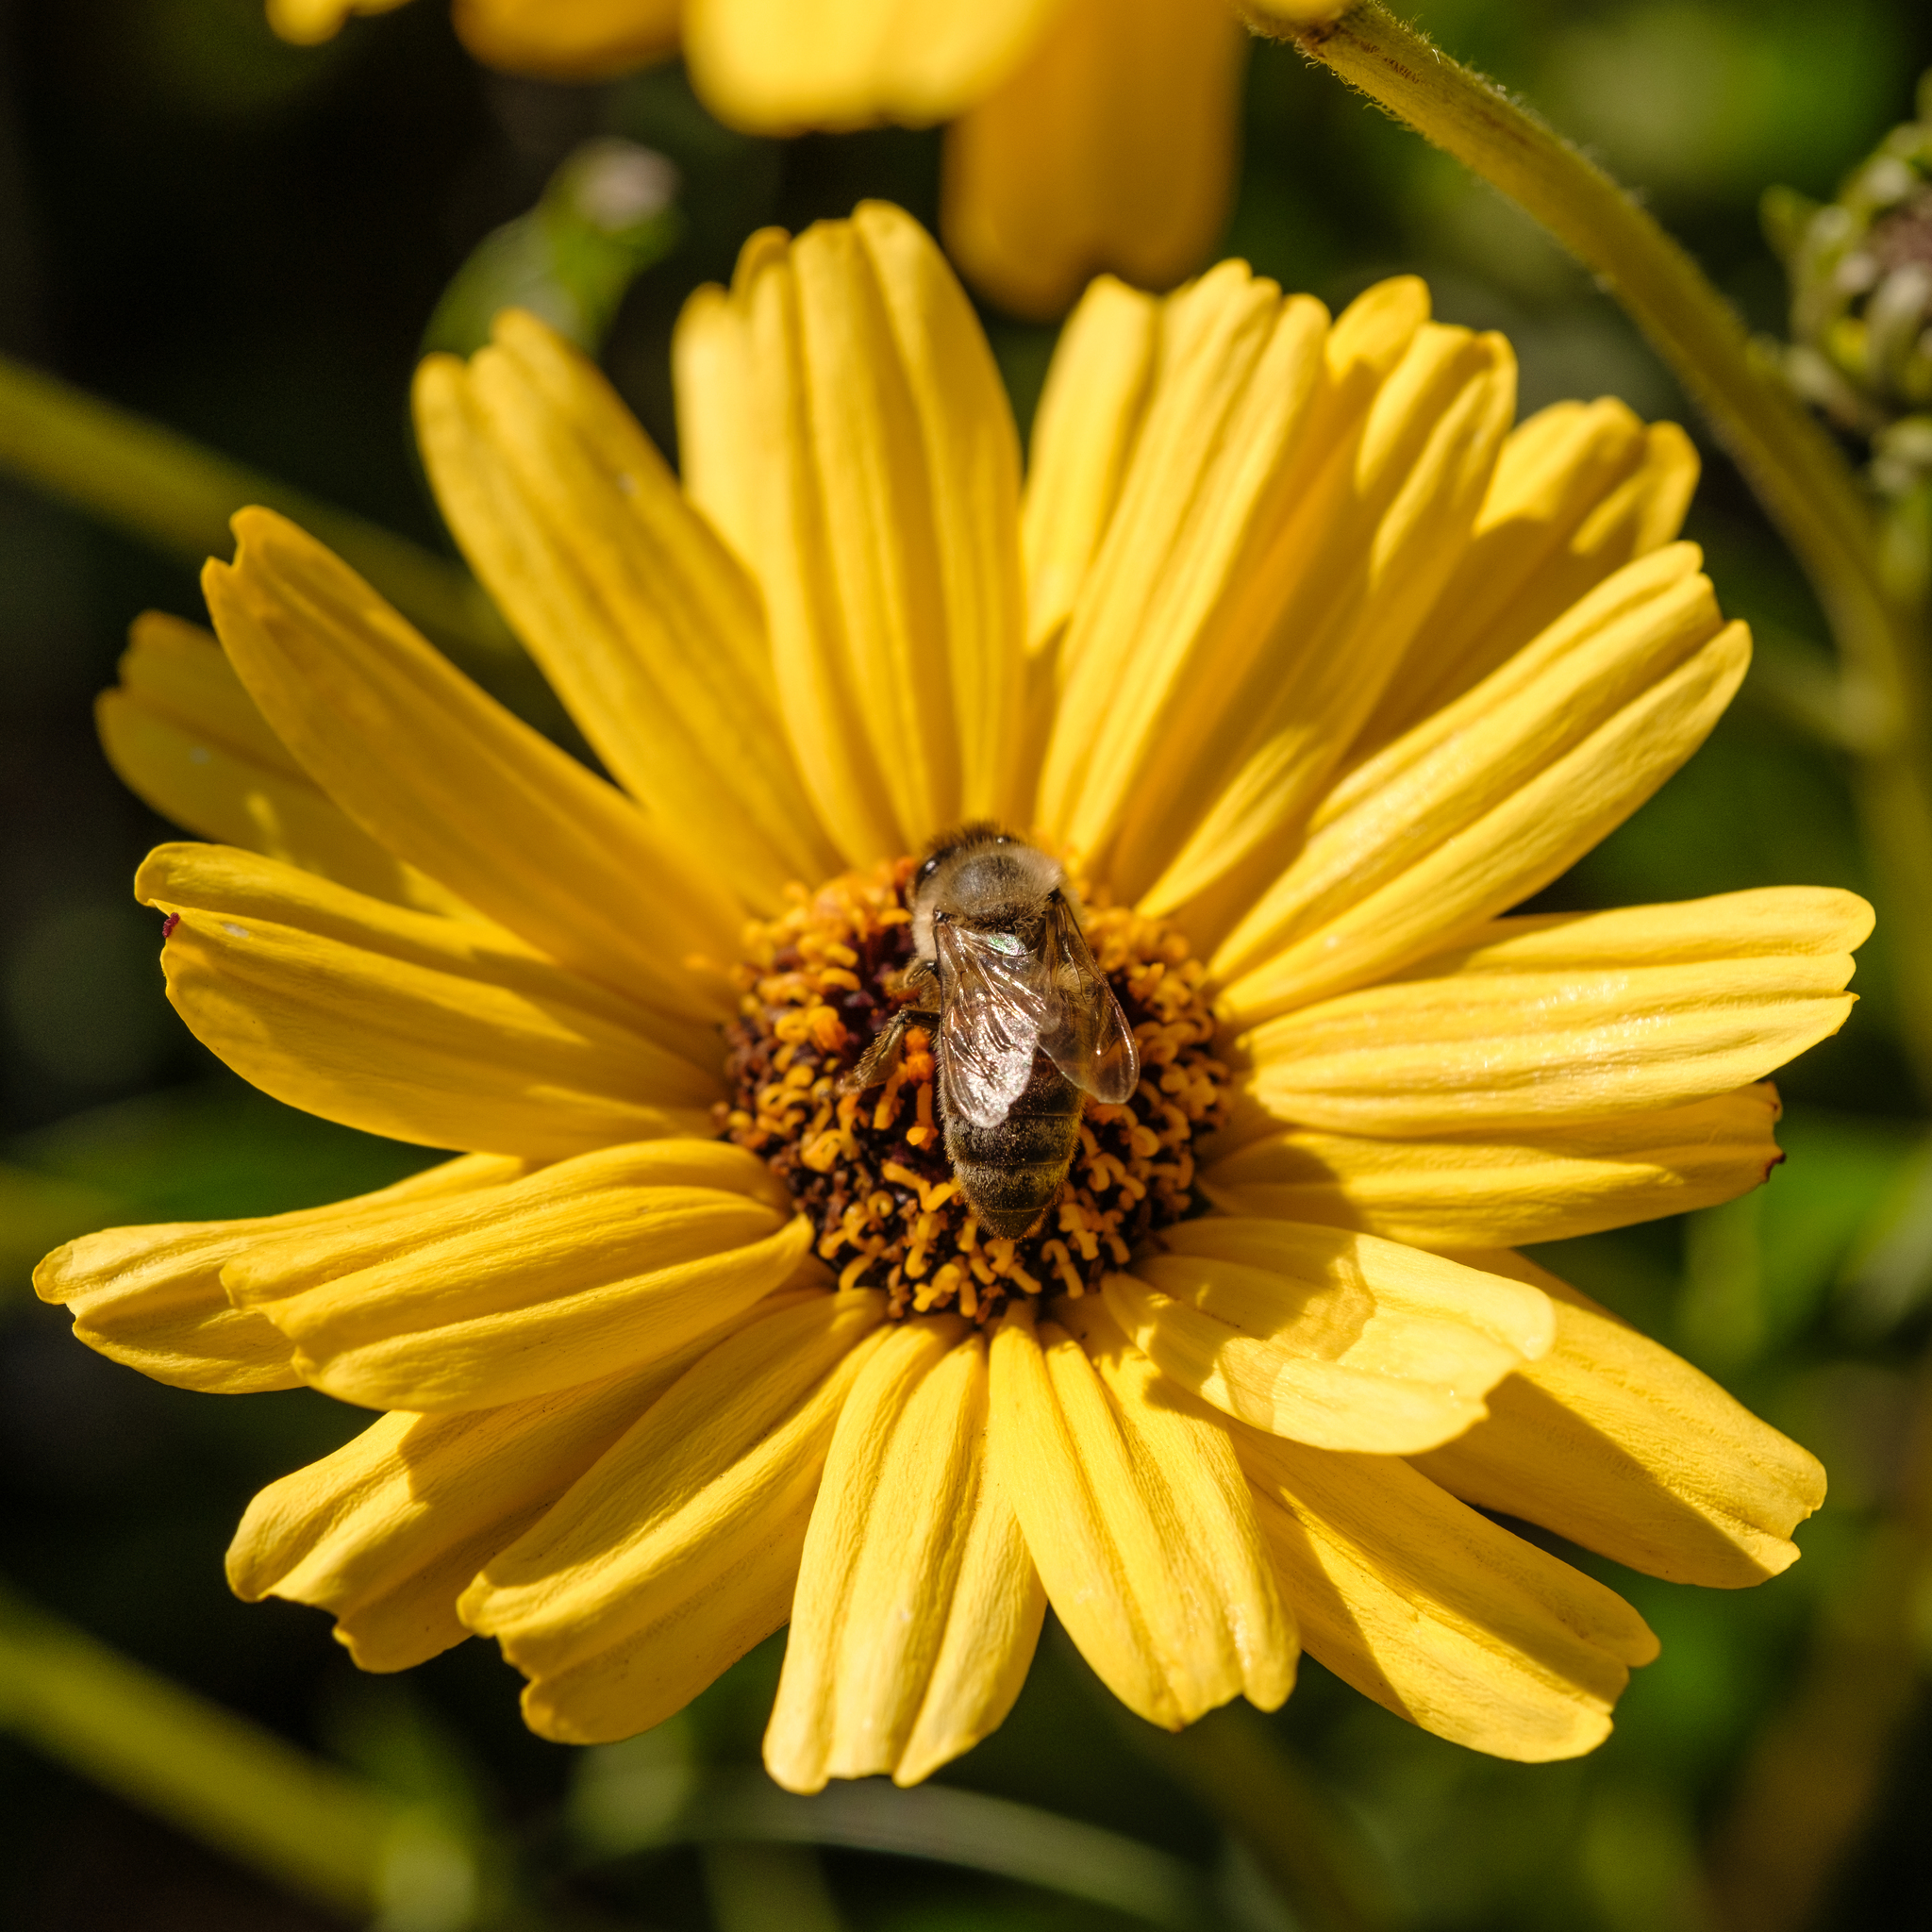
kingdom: Animalia
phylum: Arthropoda
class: Insecta
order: Hymenoptera
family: Apidae
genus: Apis
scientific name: Apis mellifera
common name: Honey bee
